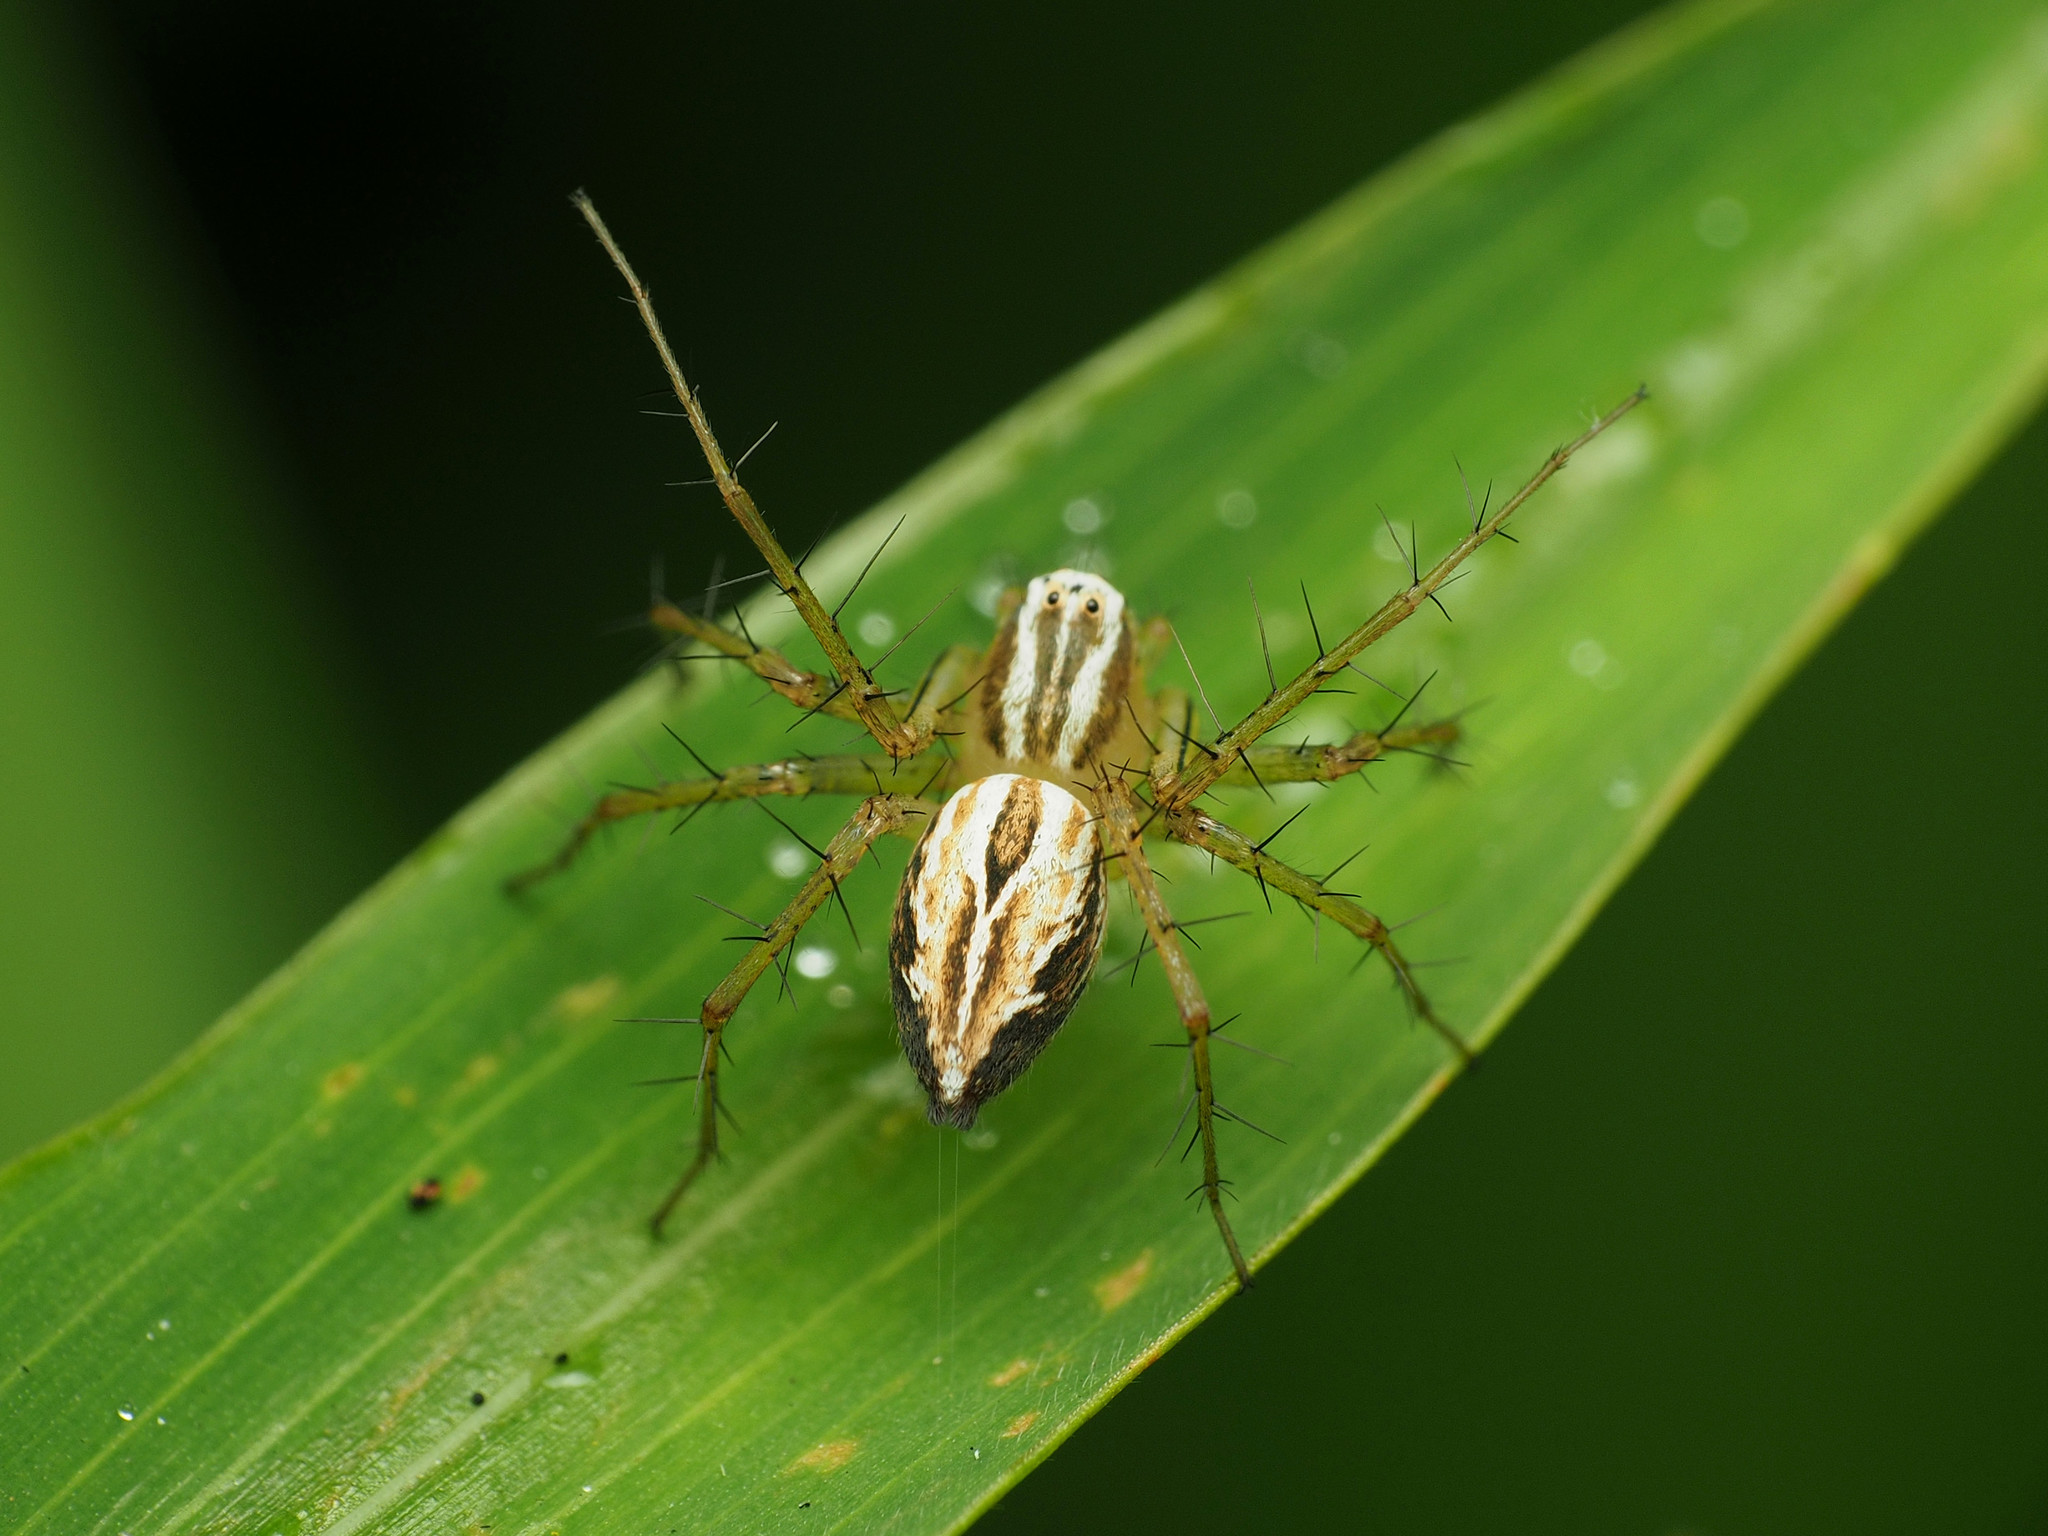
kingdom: Animalia
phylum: Arthropoda
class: Arachnida
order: Araneae
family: Oxyopidae
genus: Oxyopes
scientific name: Oxyopes salticus
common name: Lynx spiders
